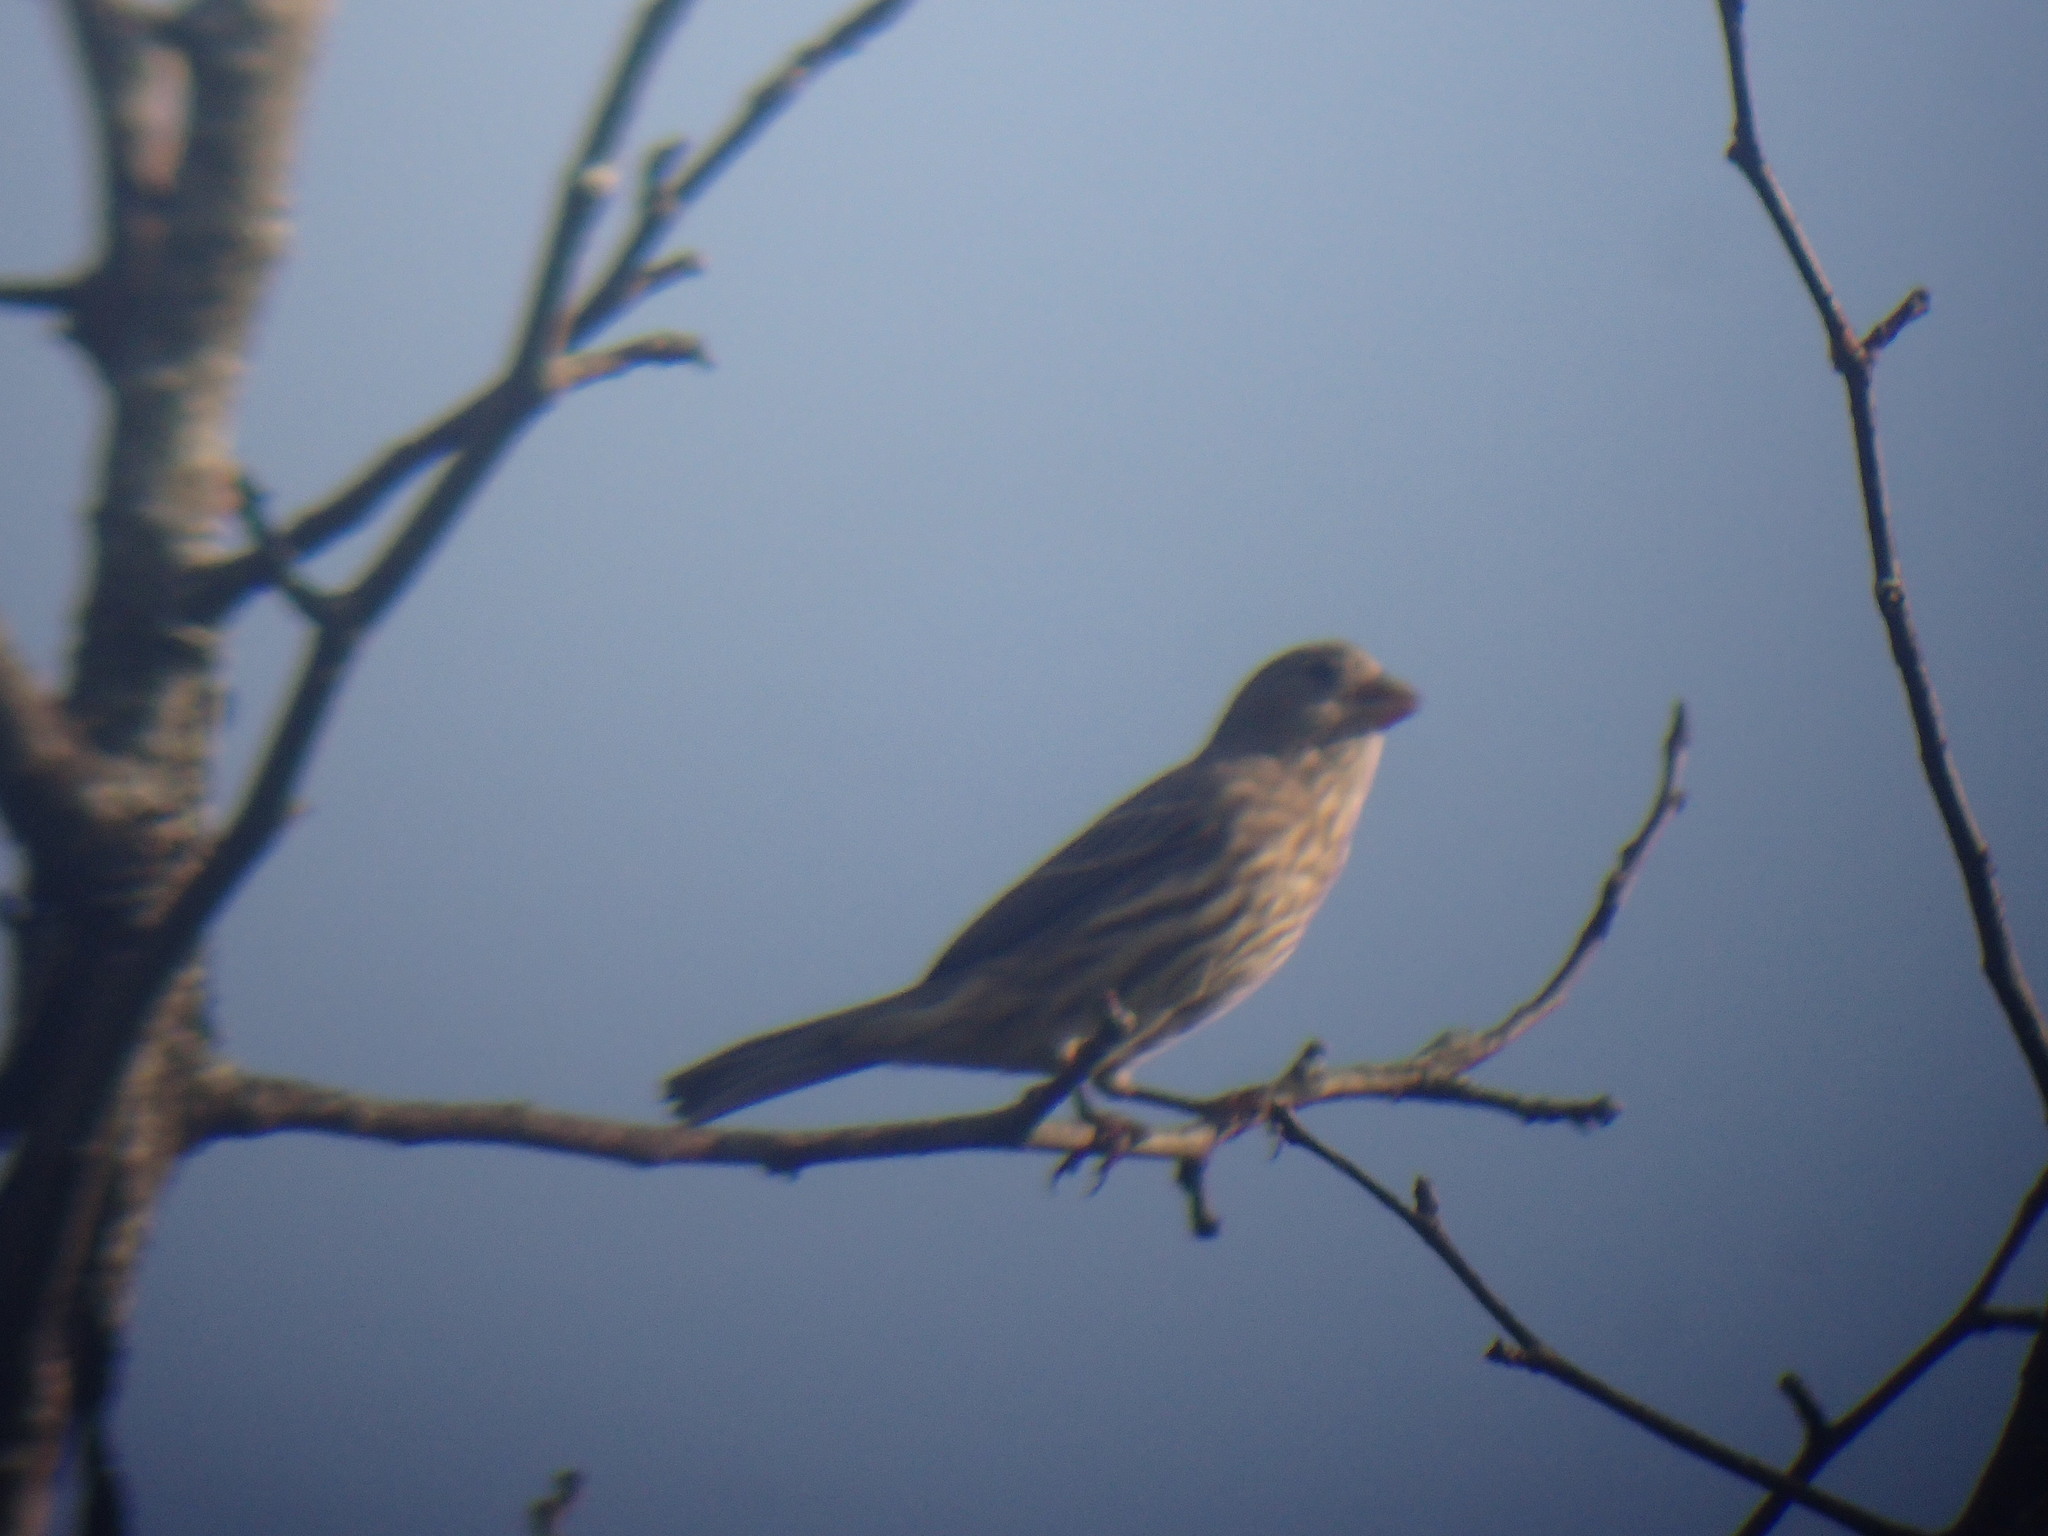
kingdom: Animalia
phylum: Chordata
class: Aves
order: Passeriformes
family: Fringillidae
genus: Haemorhous
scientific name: Haemorhous mexicanus
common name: House finch
